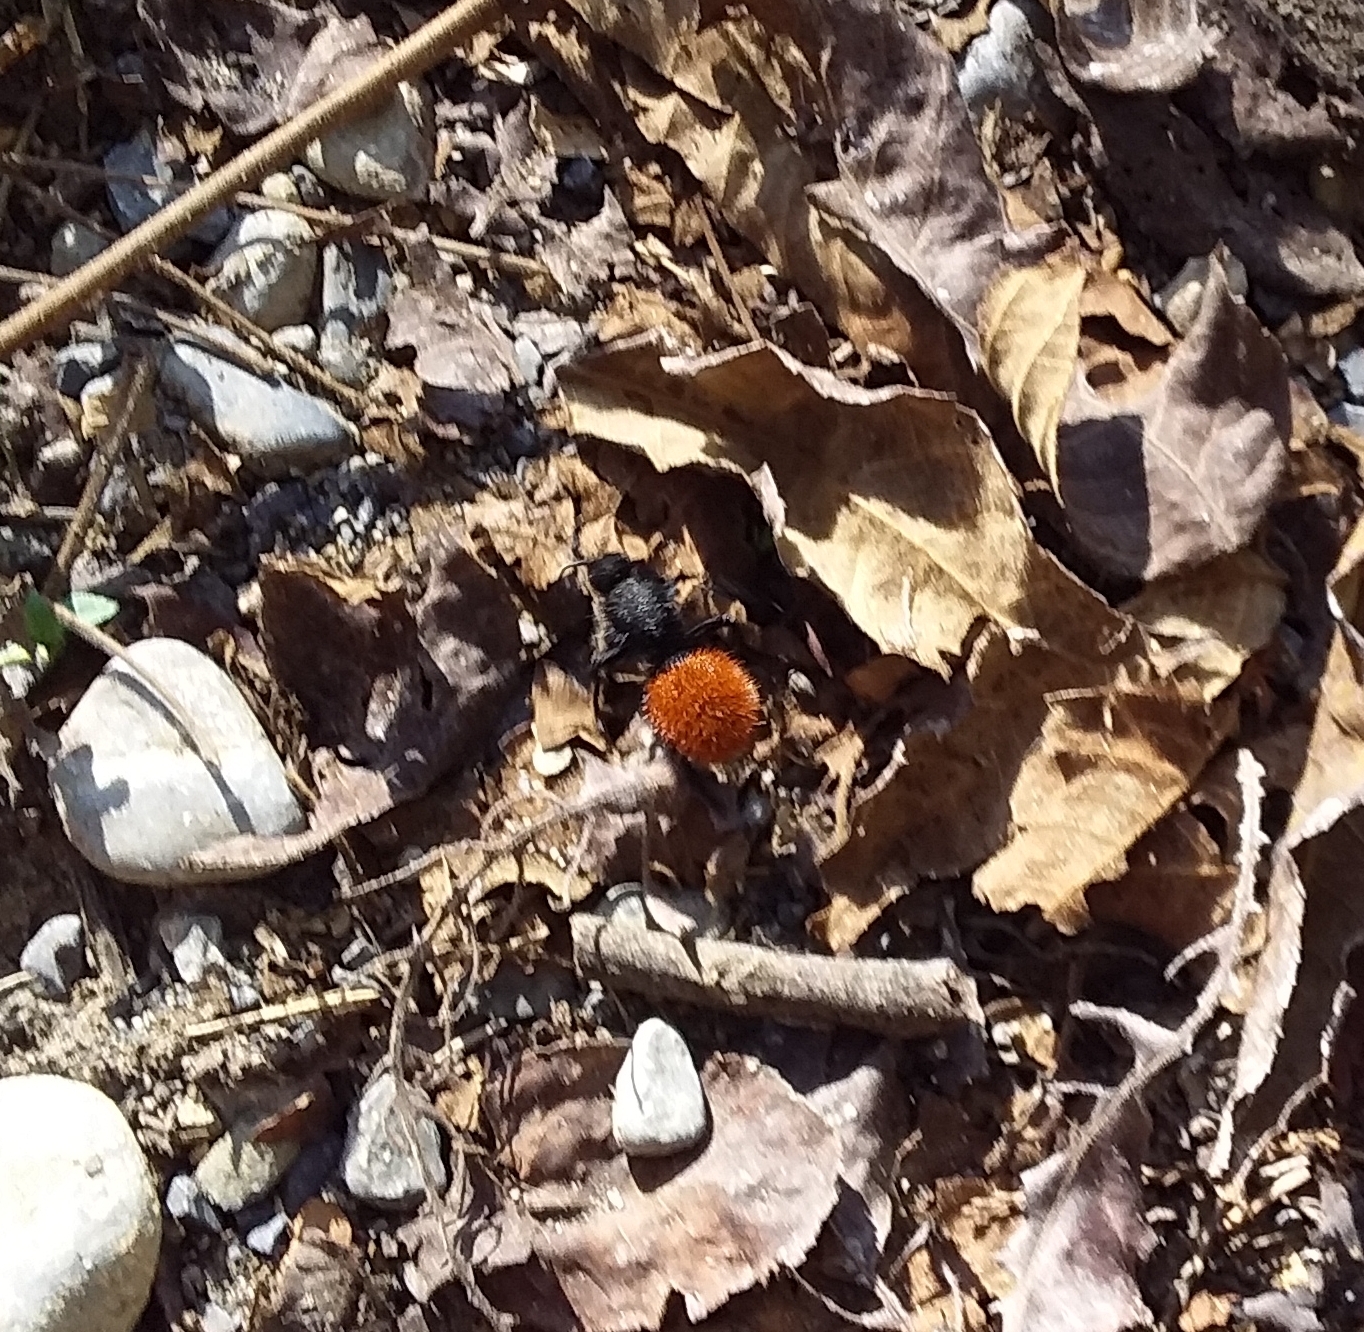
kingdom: Animalia
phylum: Arthropoda
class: Insecta
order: Hymenoptera
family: Mutillidae
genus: Dasymutilla
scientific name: Dasymutilla
